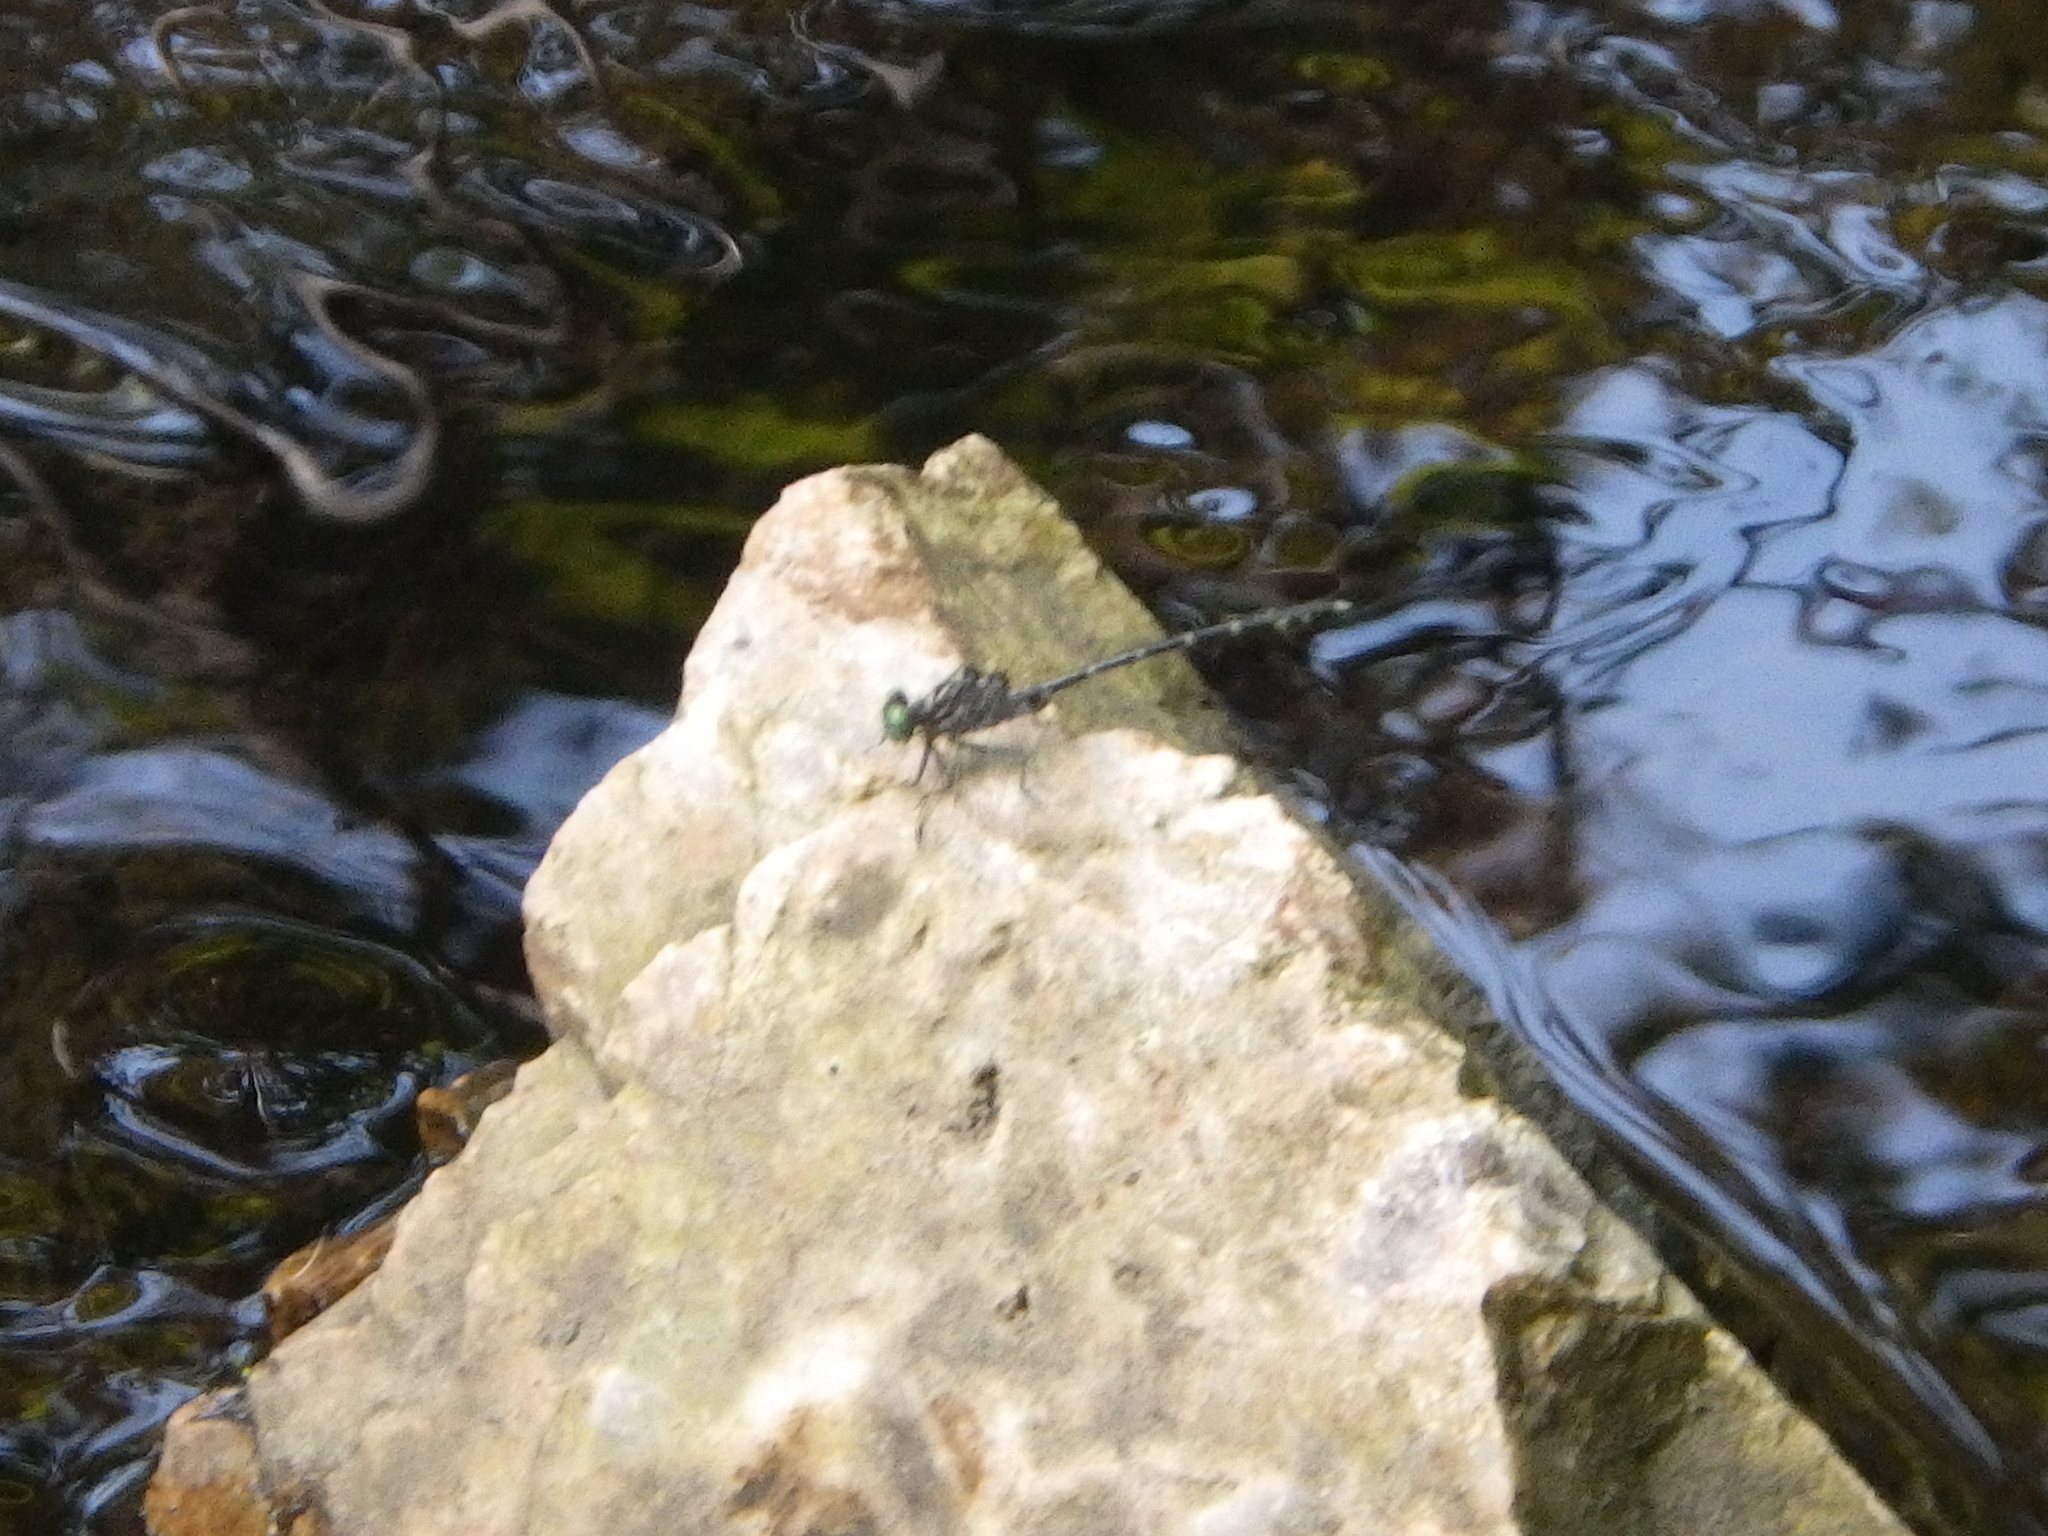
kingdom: Animalia
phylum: Arthropoda
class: Insecta
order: Odonata
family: Gomphidae
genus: Stylogomphus
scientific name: Stylogomphus albistylus
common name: Eastern least clubtail
